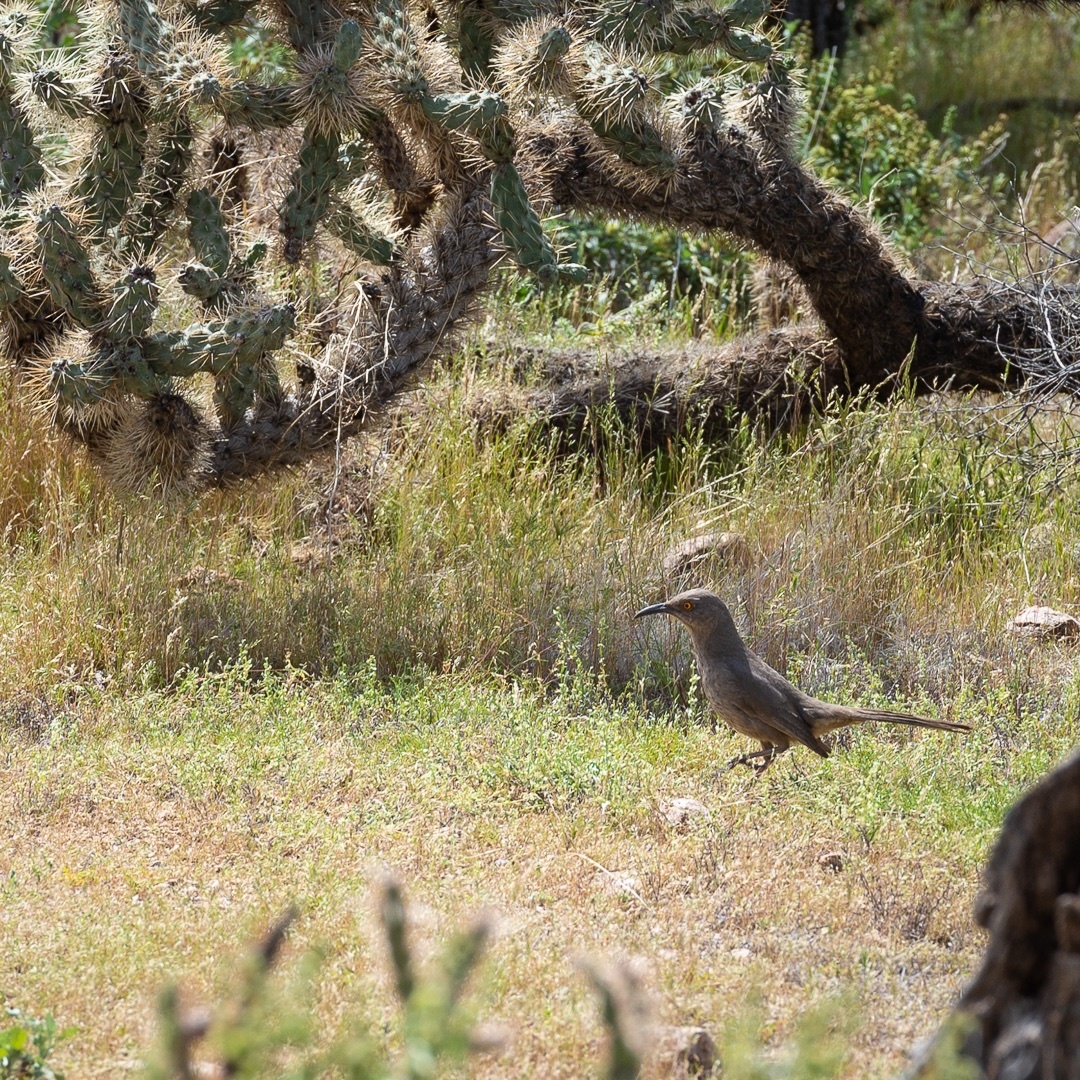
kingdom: Animalia
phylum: Chordata
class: Aves
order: Passeriformes
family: Mimidae
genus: Toxostoma
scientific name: Toxostoma curvirostre
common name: Curve-billed thrasher
